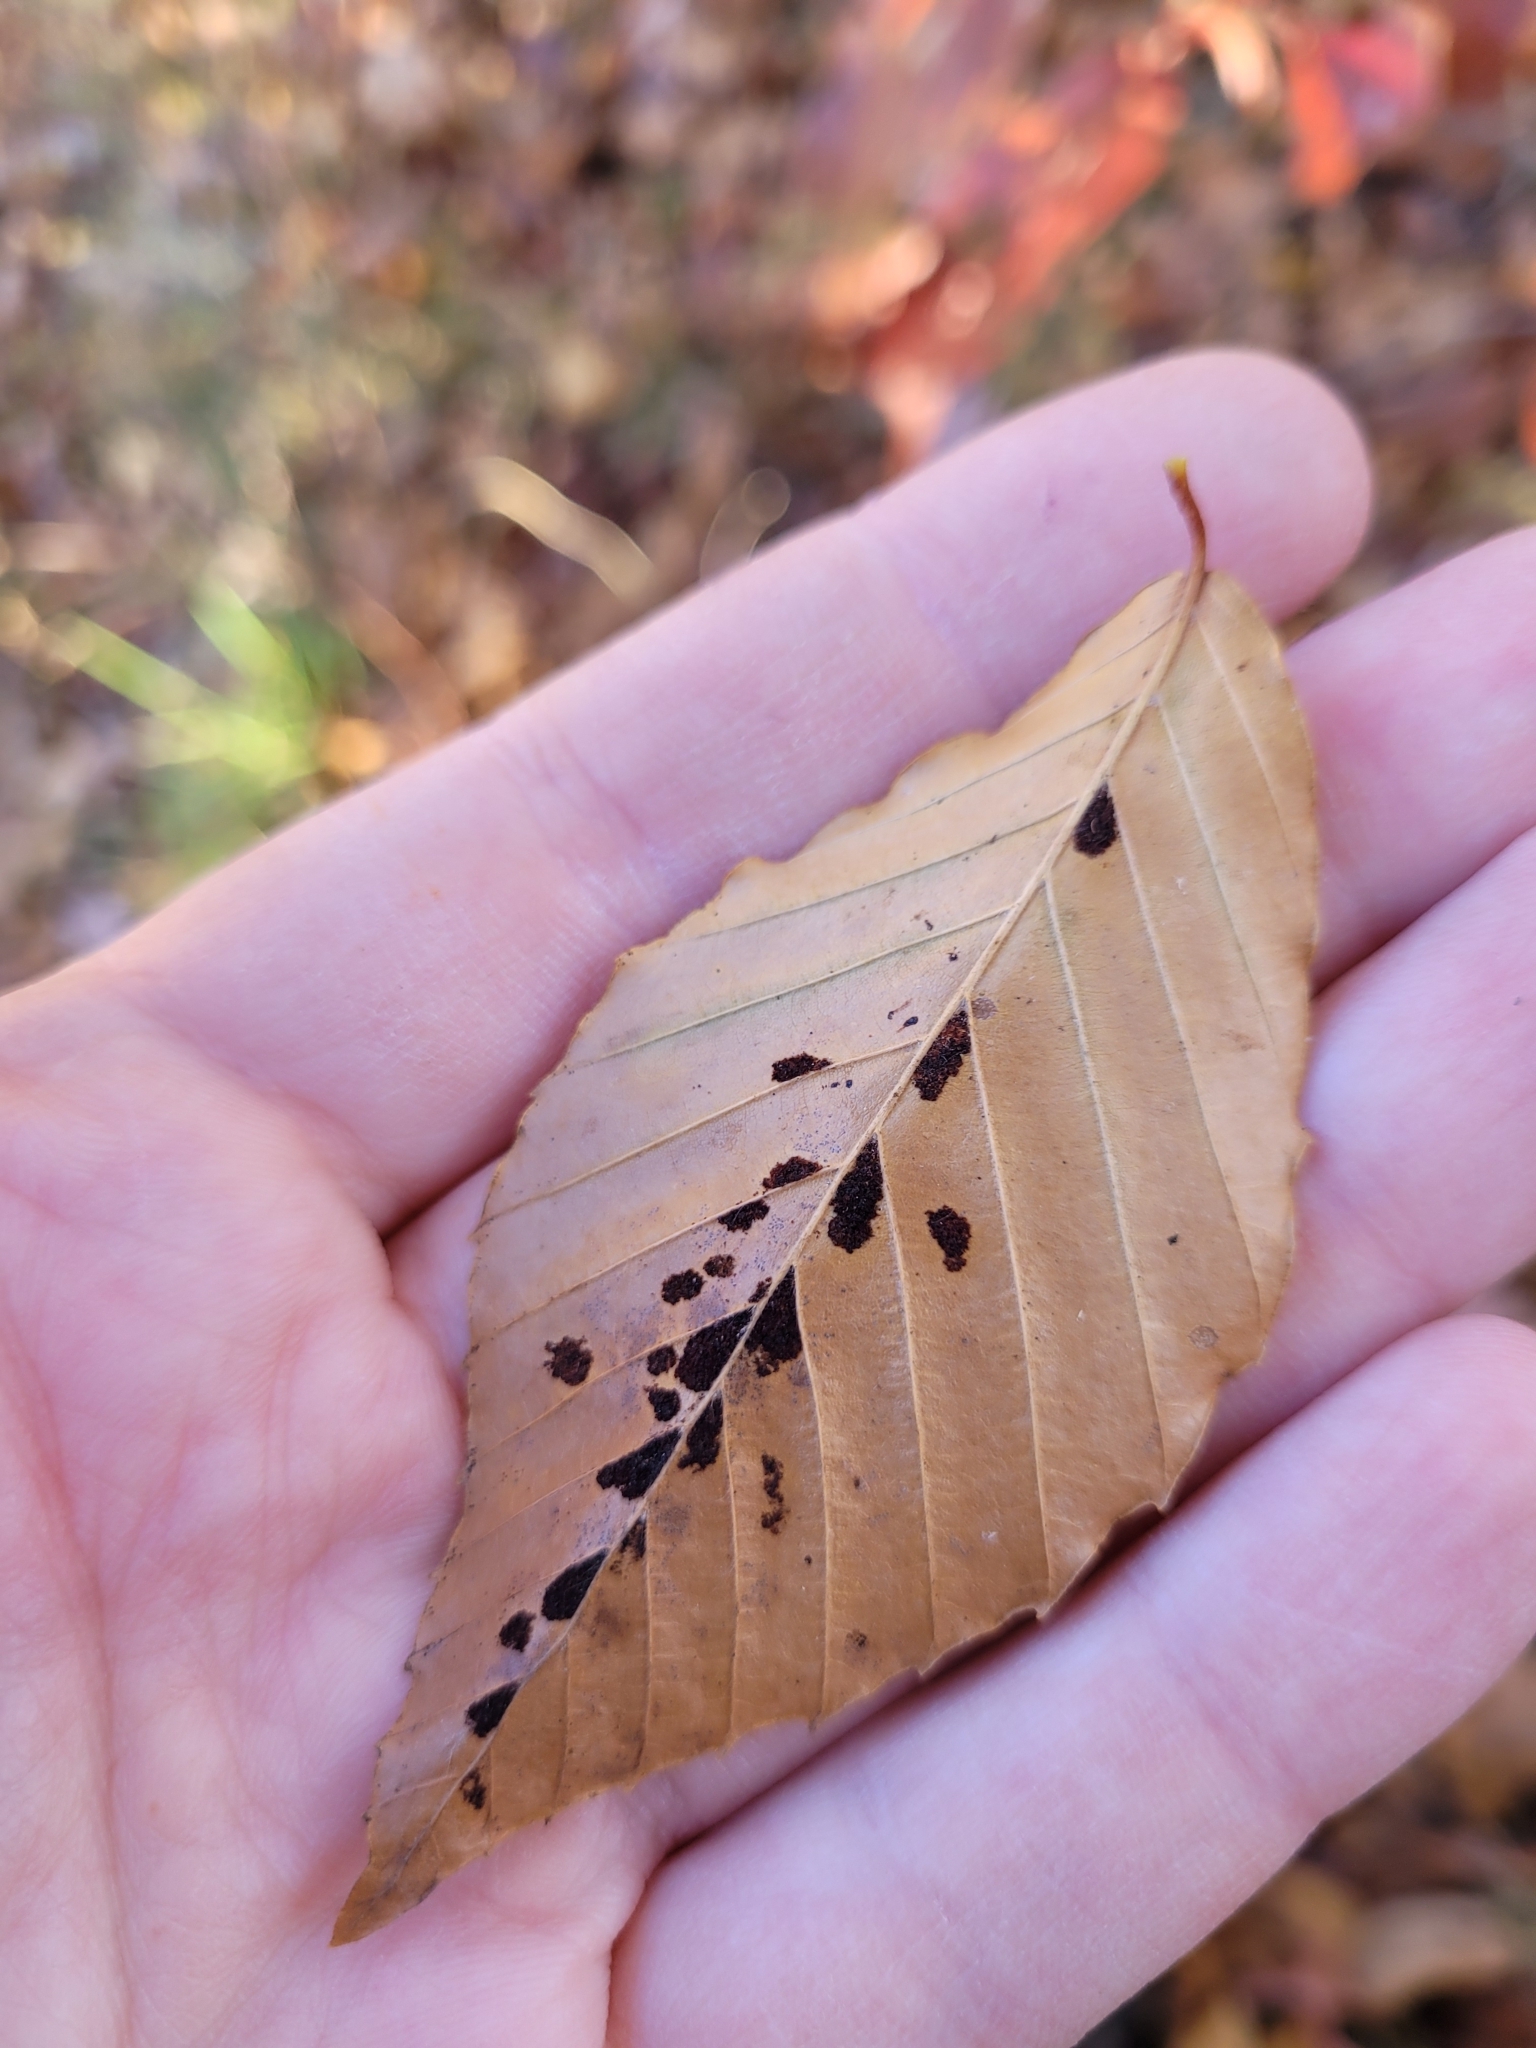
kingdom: Animalia
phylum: Arthropoda
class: Arachnida
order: Trombidiformes
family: Eriophyidae
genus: Acalitus
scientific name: Acalitus
